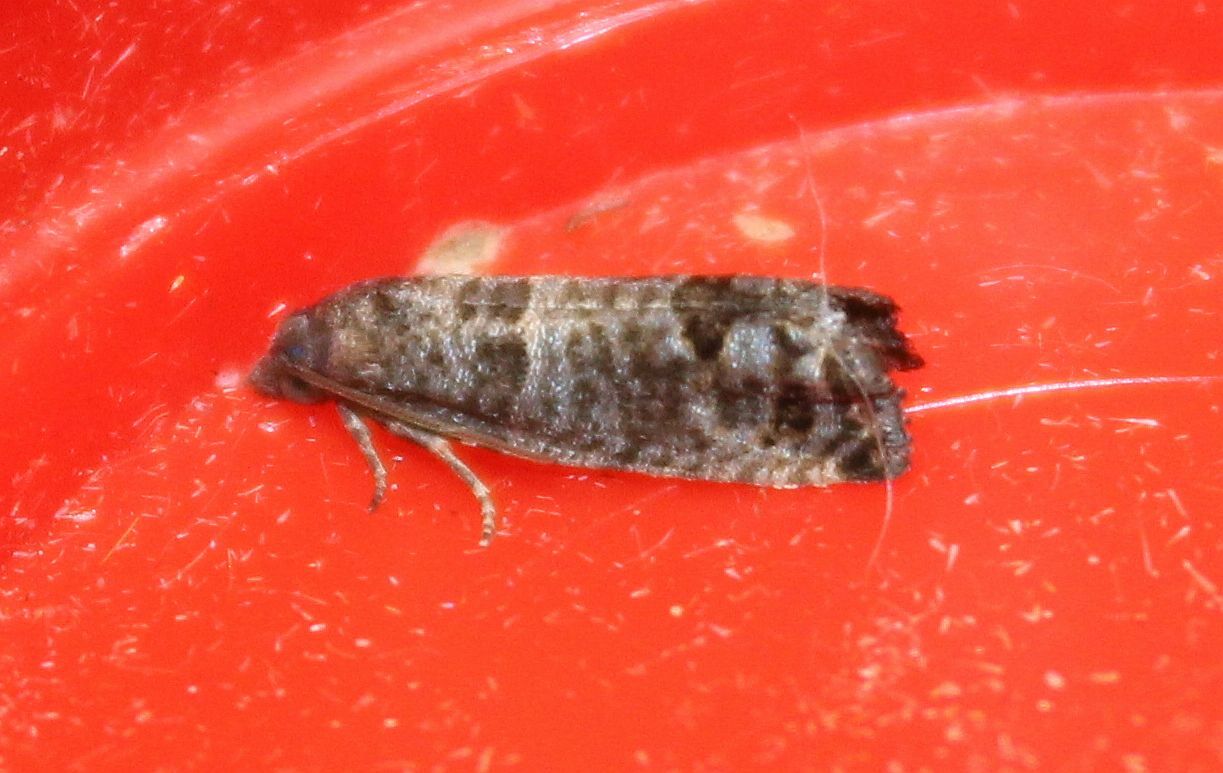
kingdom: Animalia
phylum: Arthropoda
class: Insecta
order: Lepidoptera
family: Tortricidae
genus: Cydia
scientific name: Cydia pomonella
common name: Codling moth
